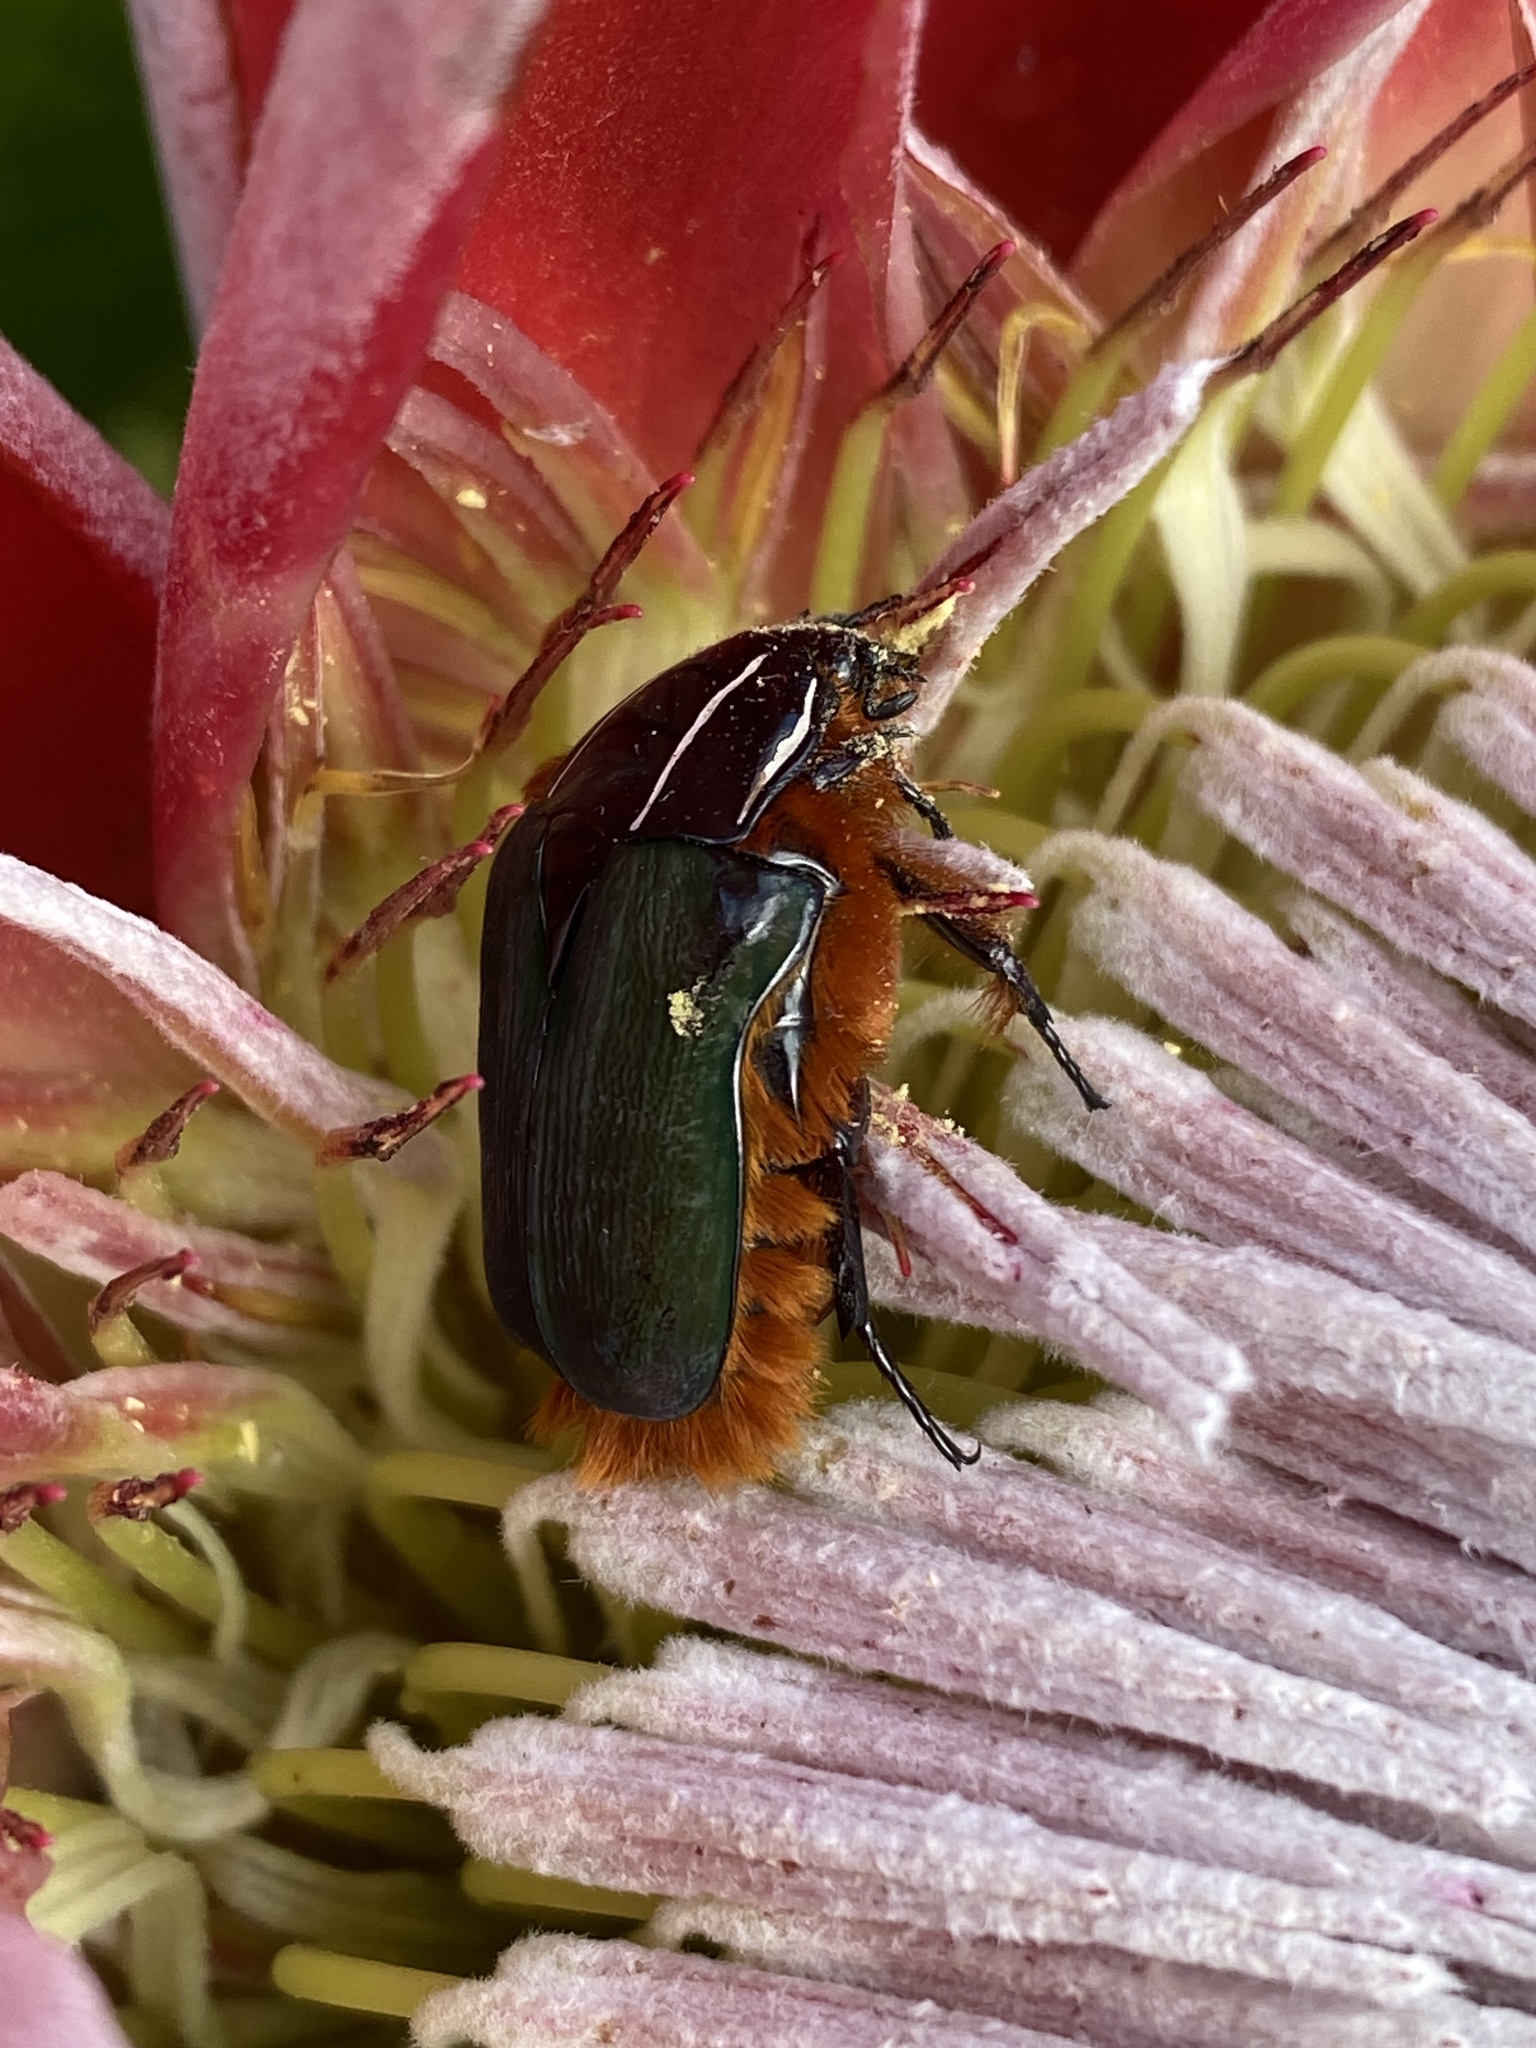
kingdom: Animalia
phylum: Arthropoda
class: Insecta
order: Coleoptera
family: Scarabaeidae
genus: Trichostetha
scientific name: Trichostetha fascicularis
